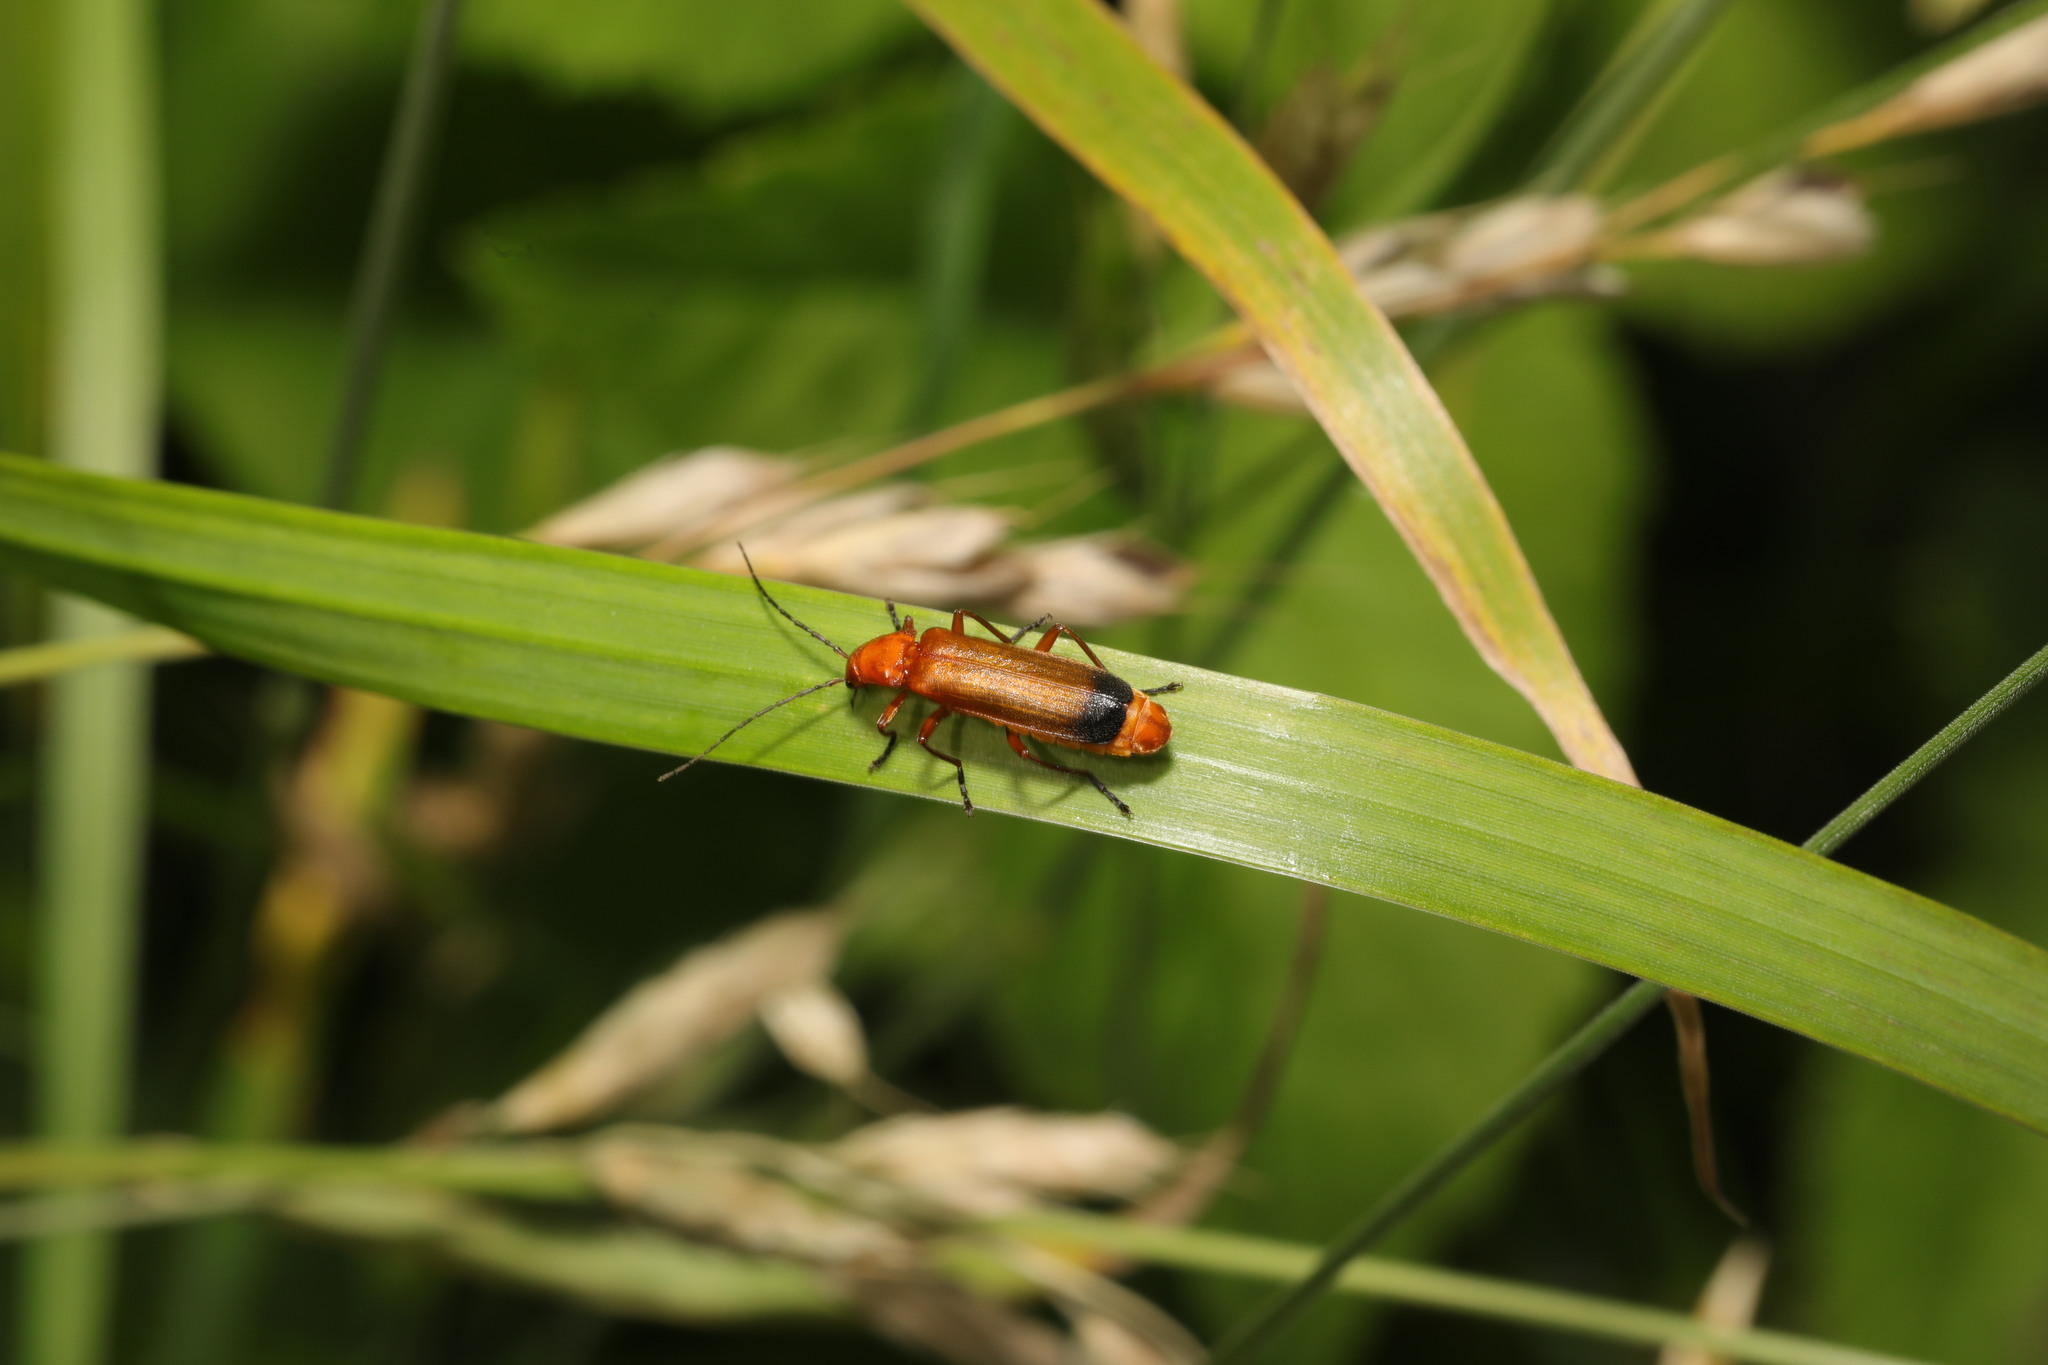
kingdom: Animalia
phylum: Arthropoda
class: Insecta
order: Coleoptera
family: Cantharidae
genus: Rhagonycha
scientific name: Rhagonycha fulva
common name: Common red soldier beetle
